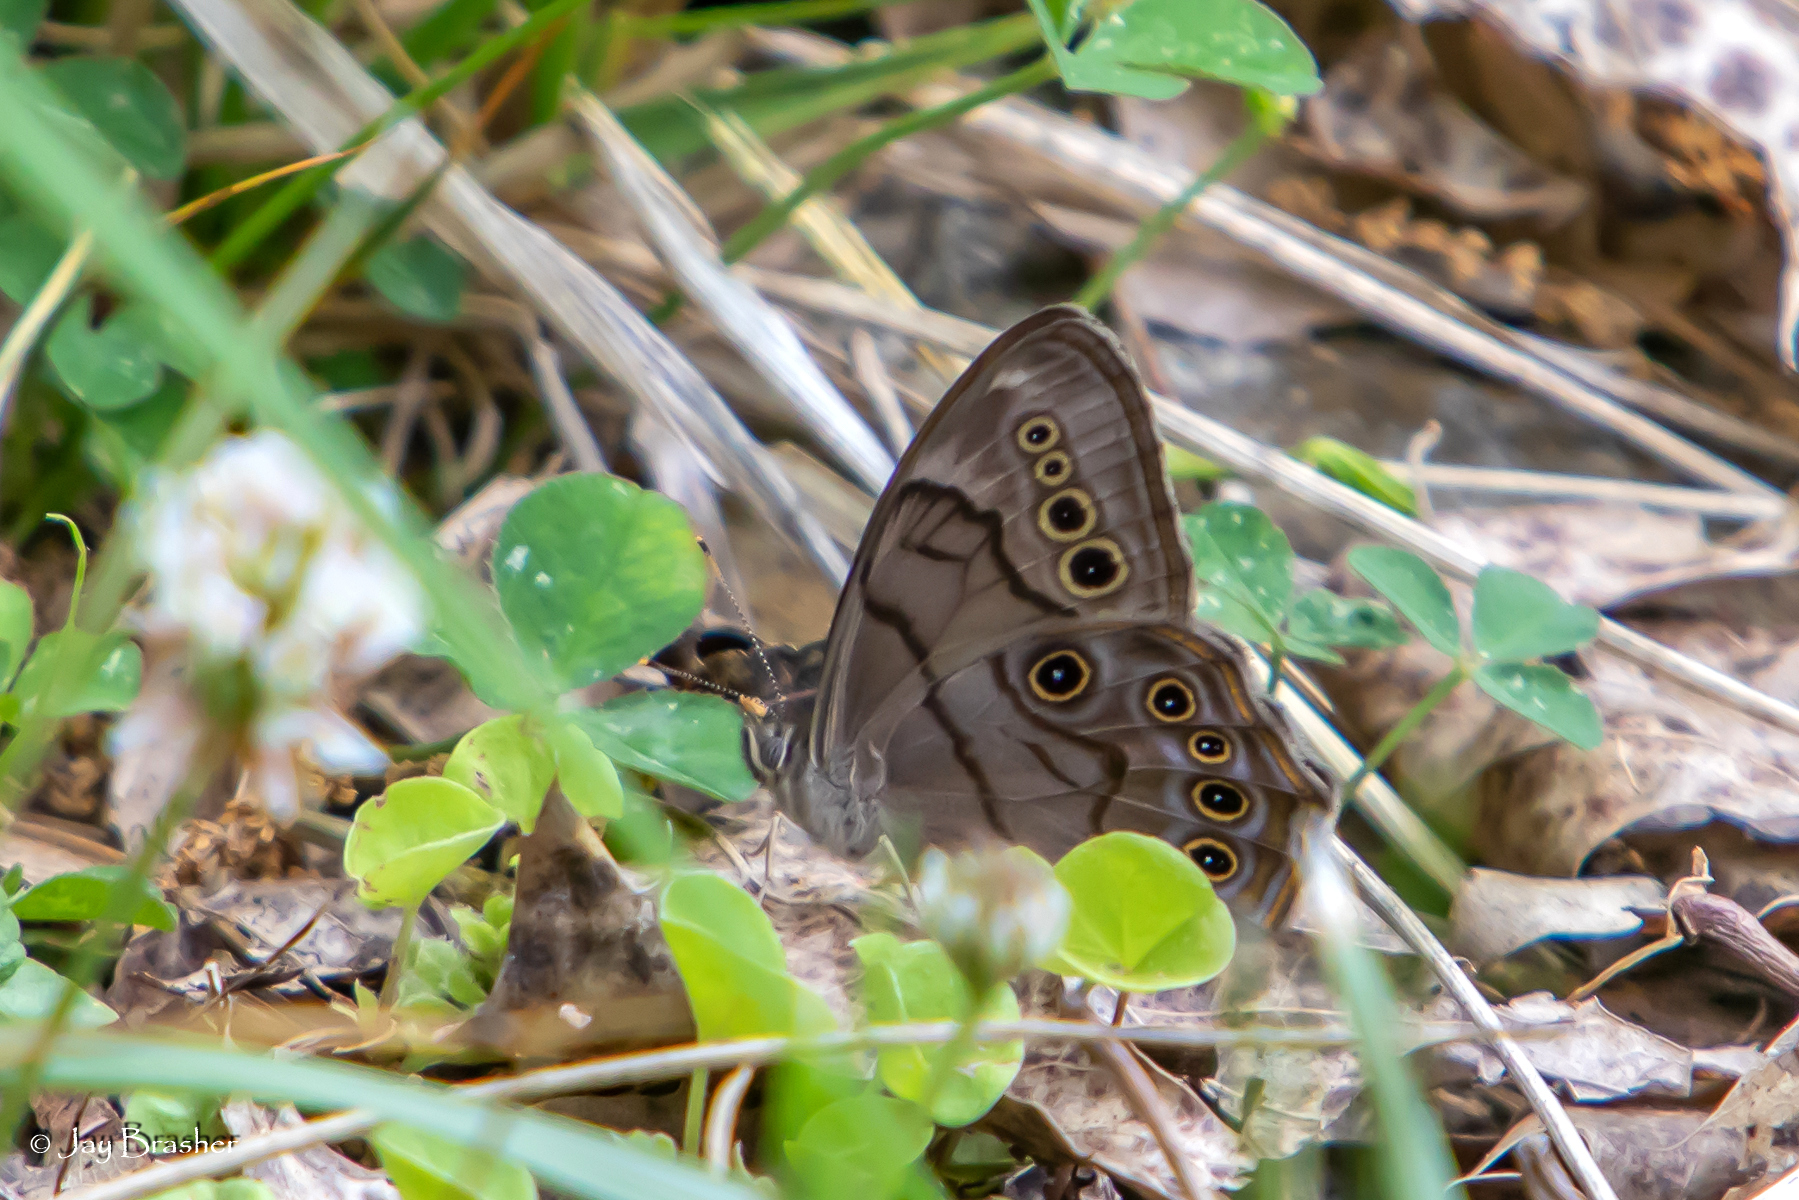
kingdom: Animalia
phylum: Arthropoda
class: Insecta
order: Lepidoptera
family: Nymphalidae
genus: Lethe
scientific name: Lethe anthedon
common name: Northern pearly-eye
